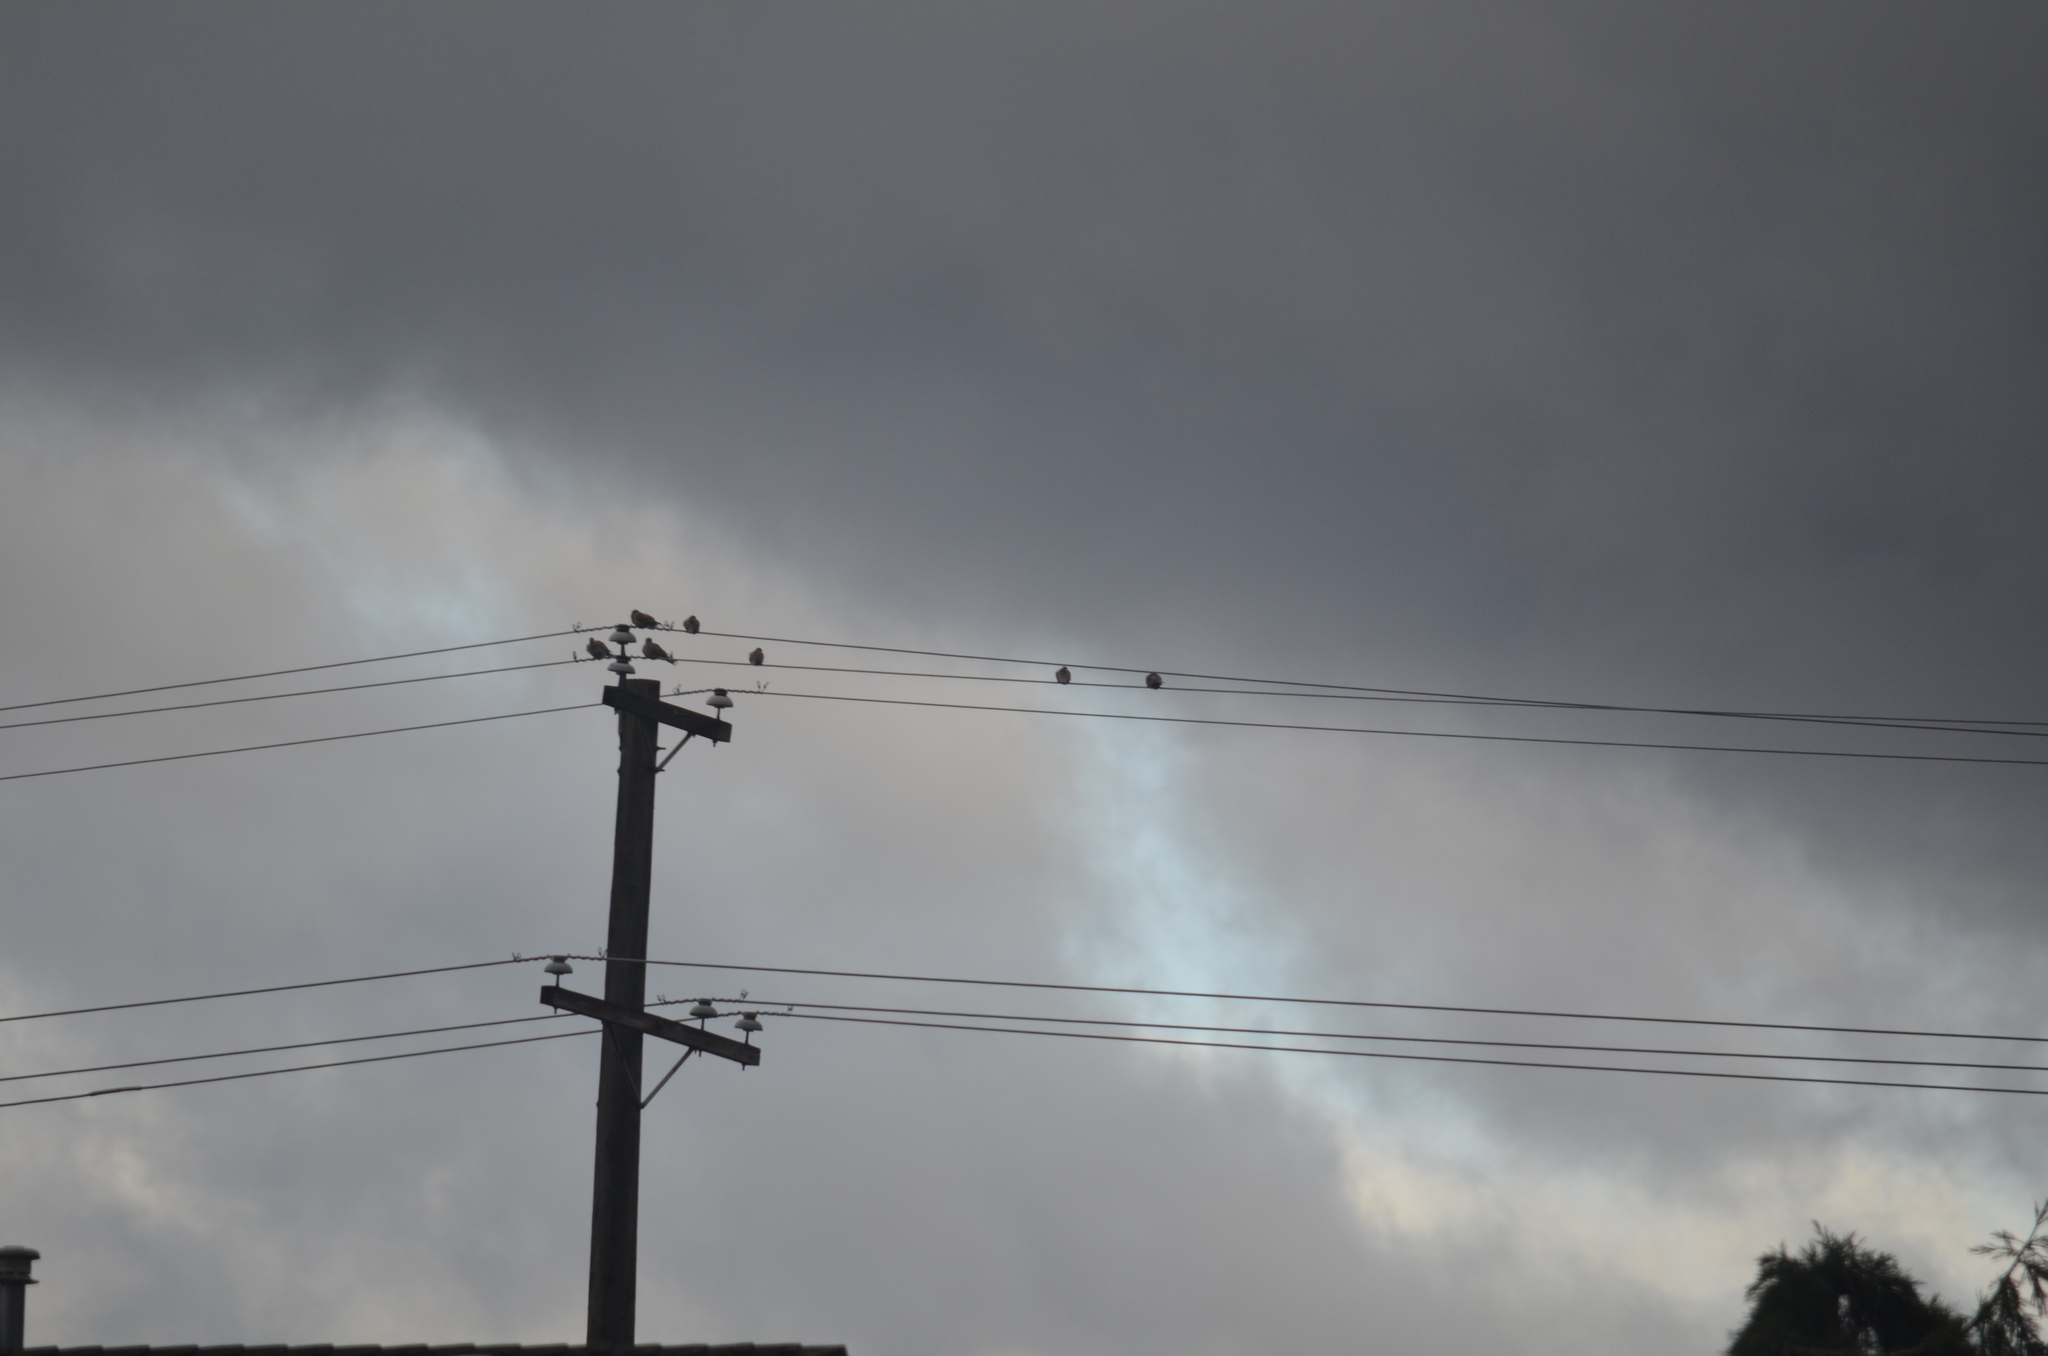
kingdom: Animalia
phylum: Chordata
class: Aves
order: Columbiformes
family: Columbidae
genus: Streptopelia
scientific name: Streptopelia decaocto
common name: Eurasian collared dove
